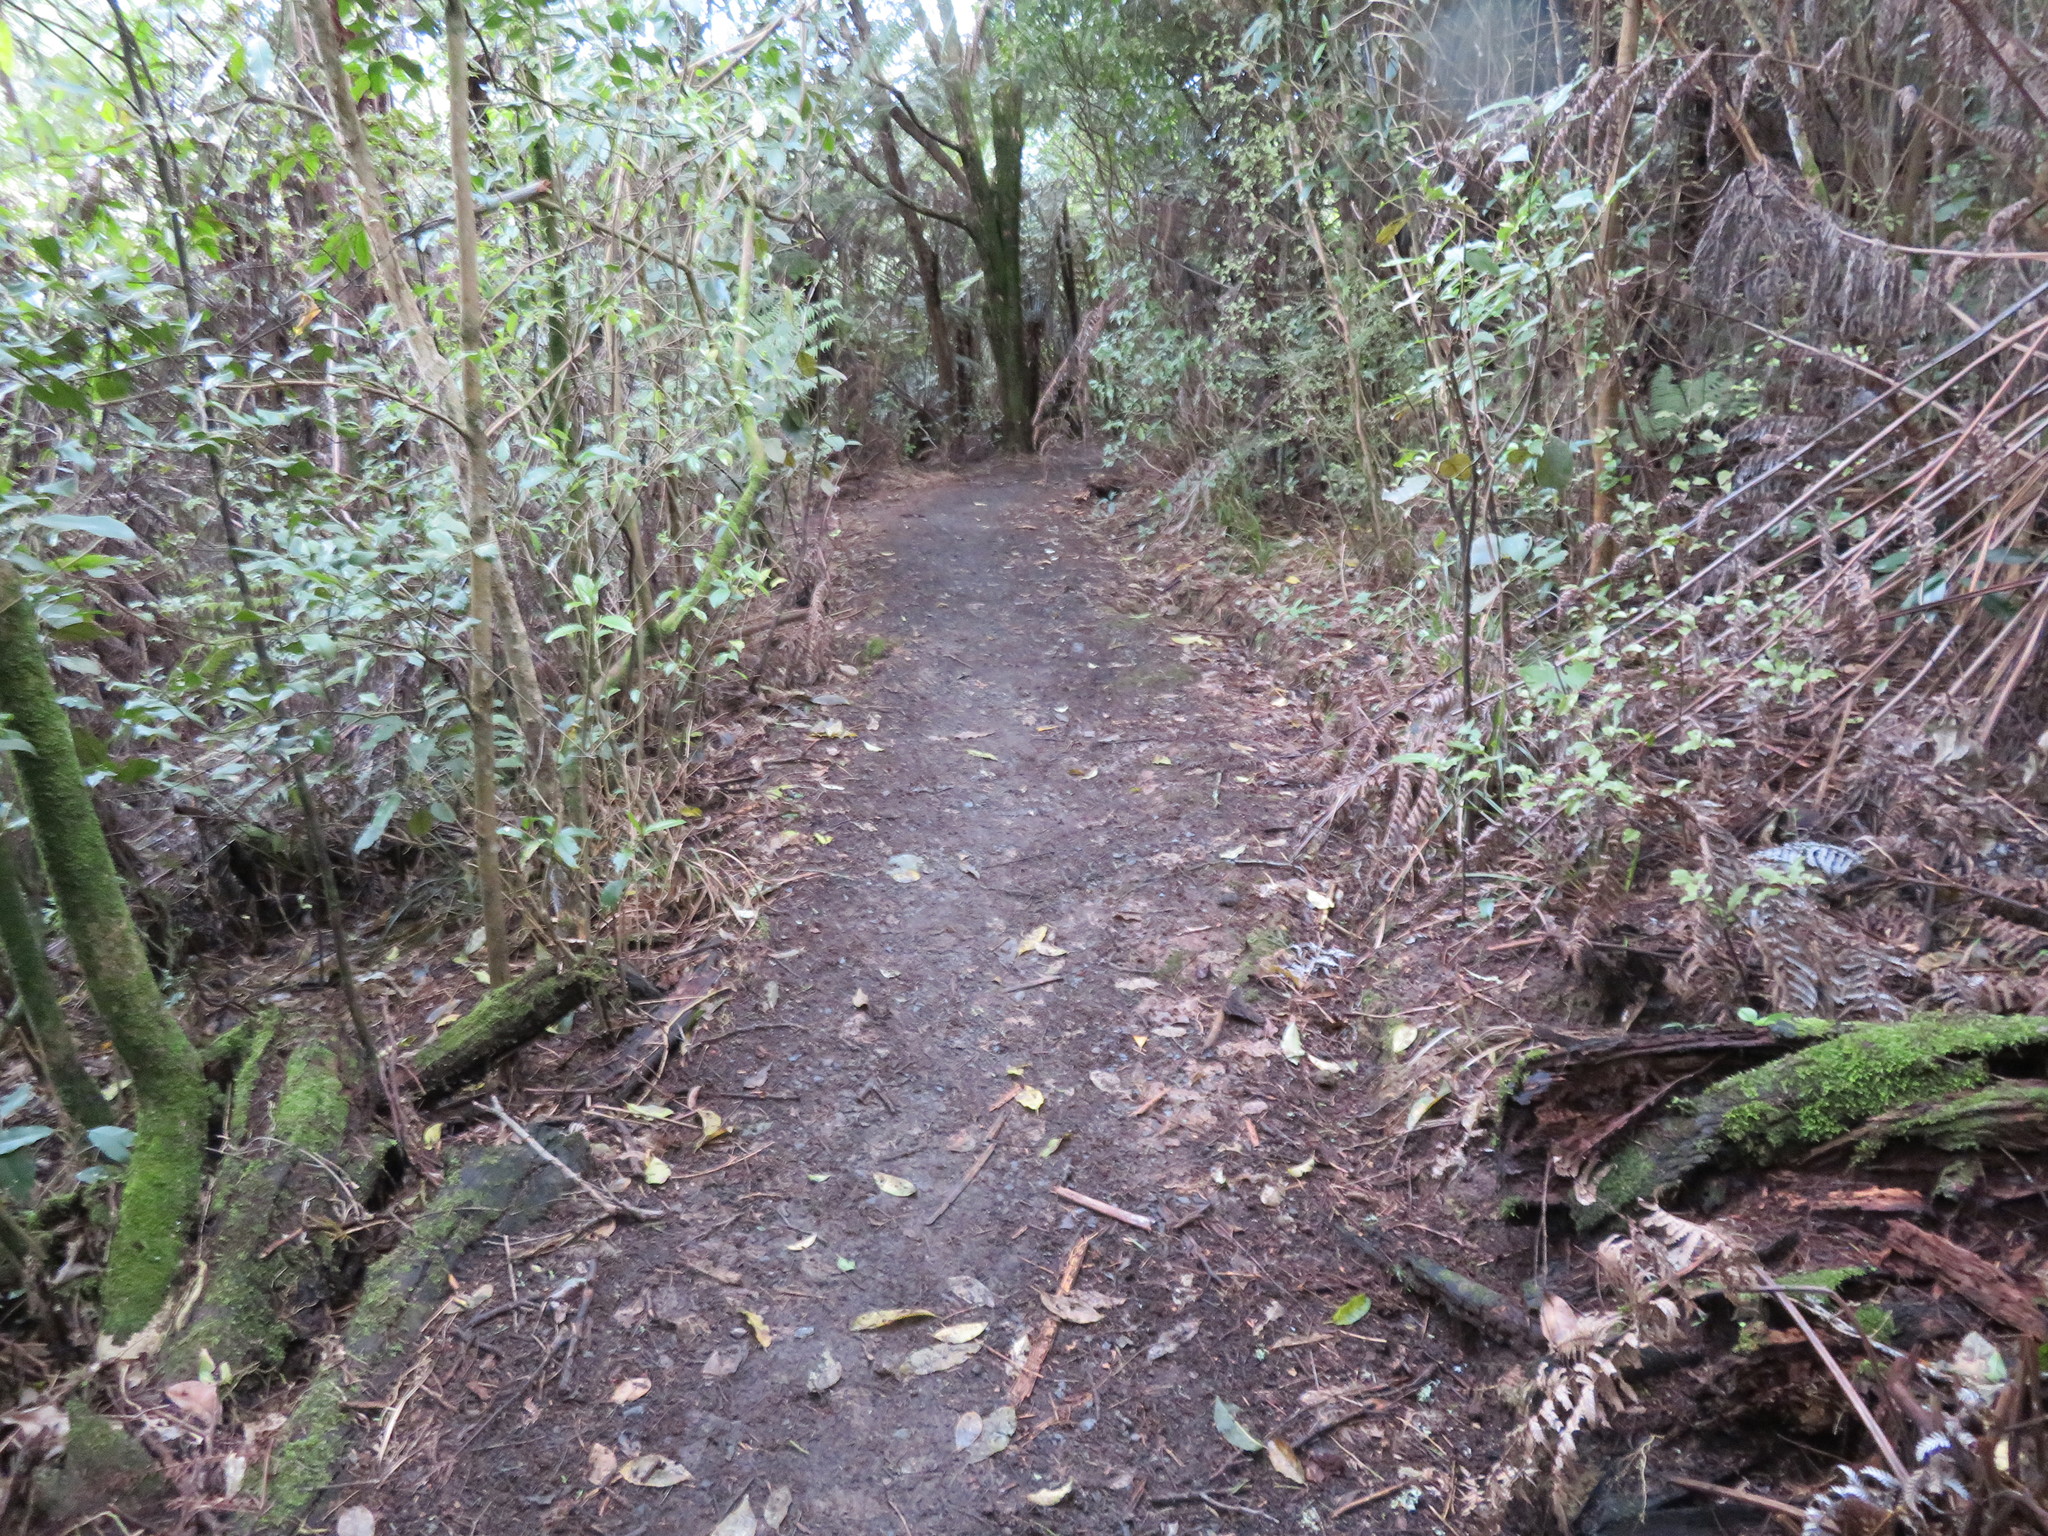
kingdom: Plantae
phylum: Tracheophyta
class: Magnoliopsida
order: Laurales
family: Monimiaceae
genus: Hedycarya
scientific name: Hedycarya arborea
